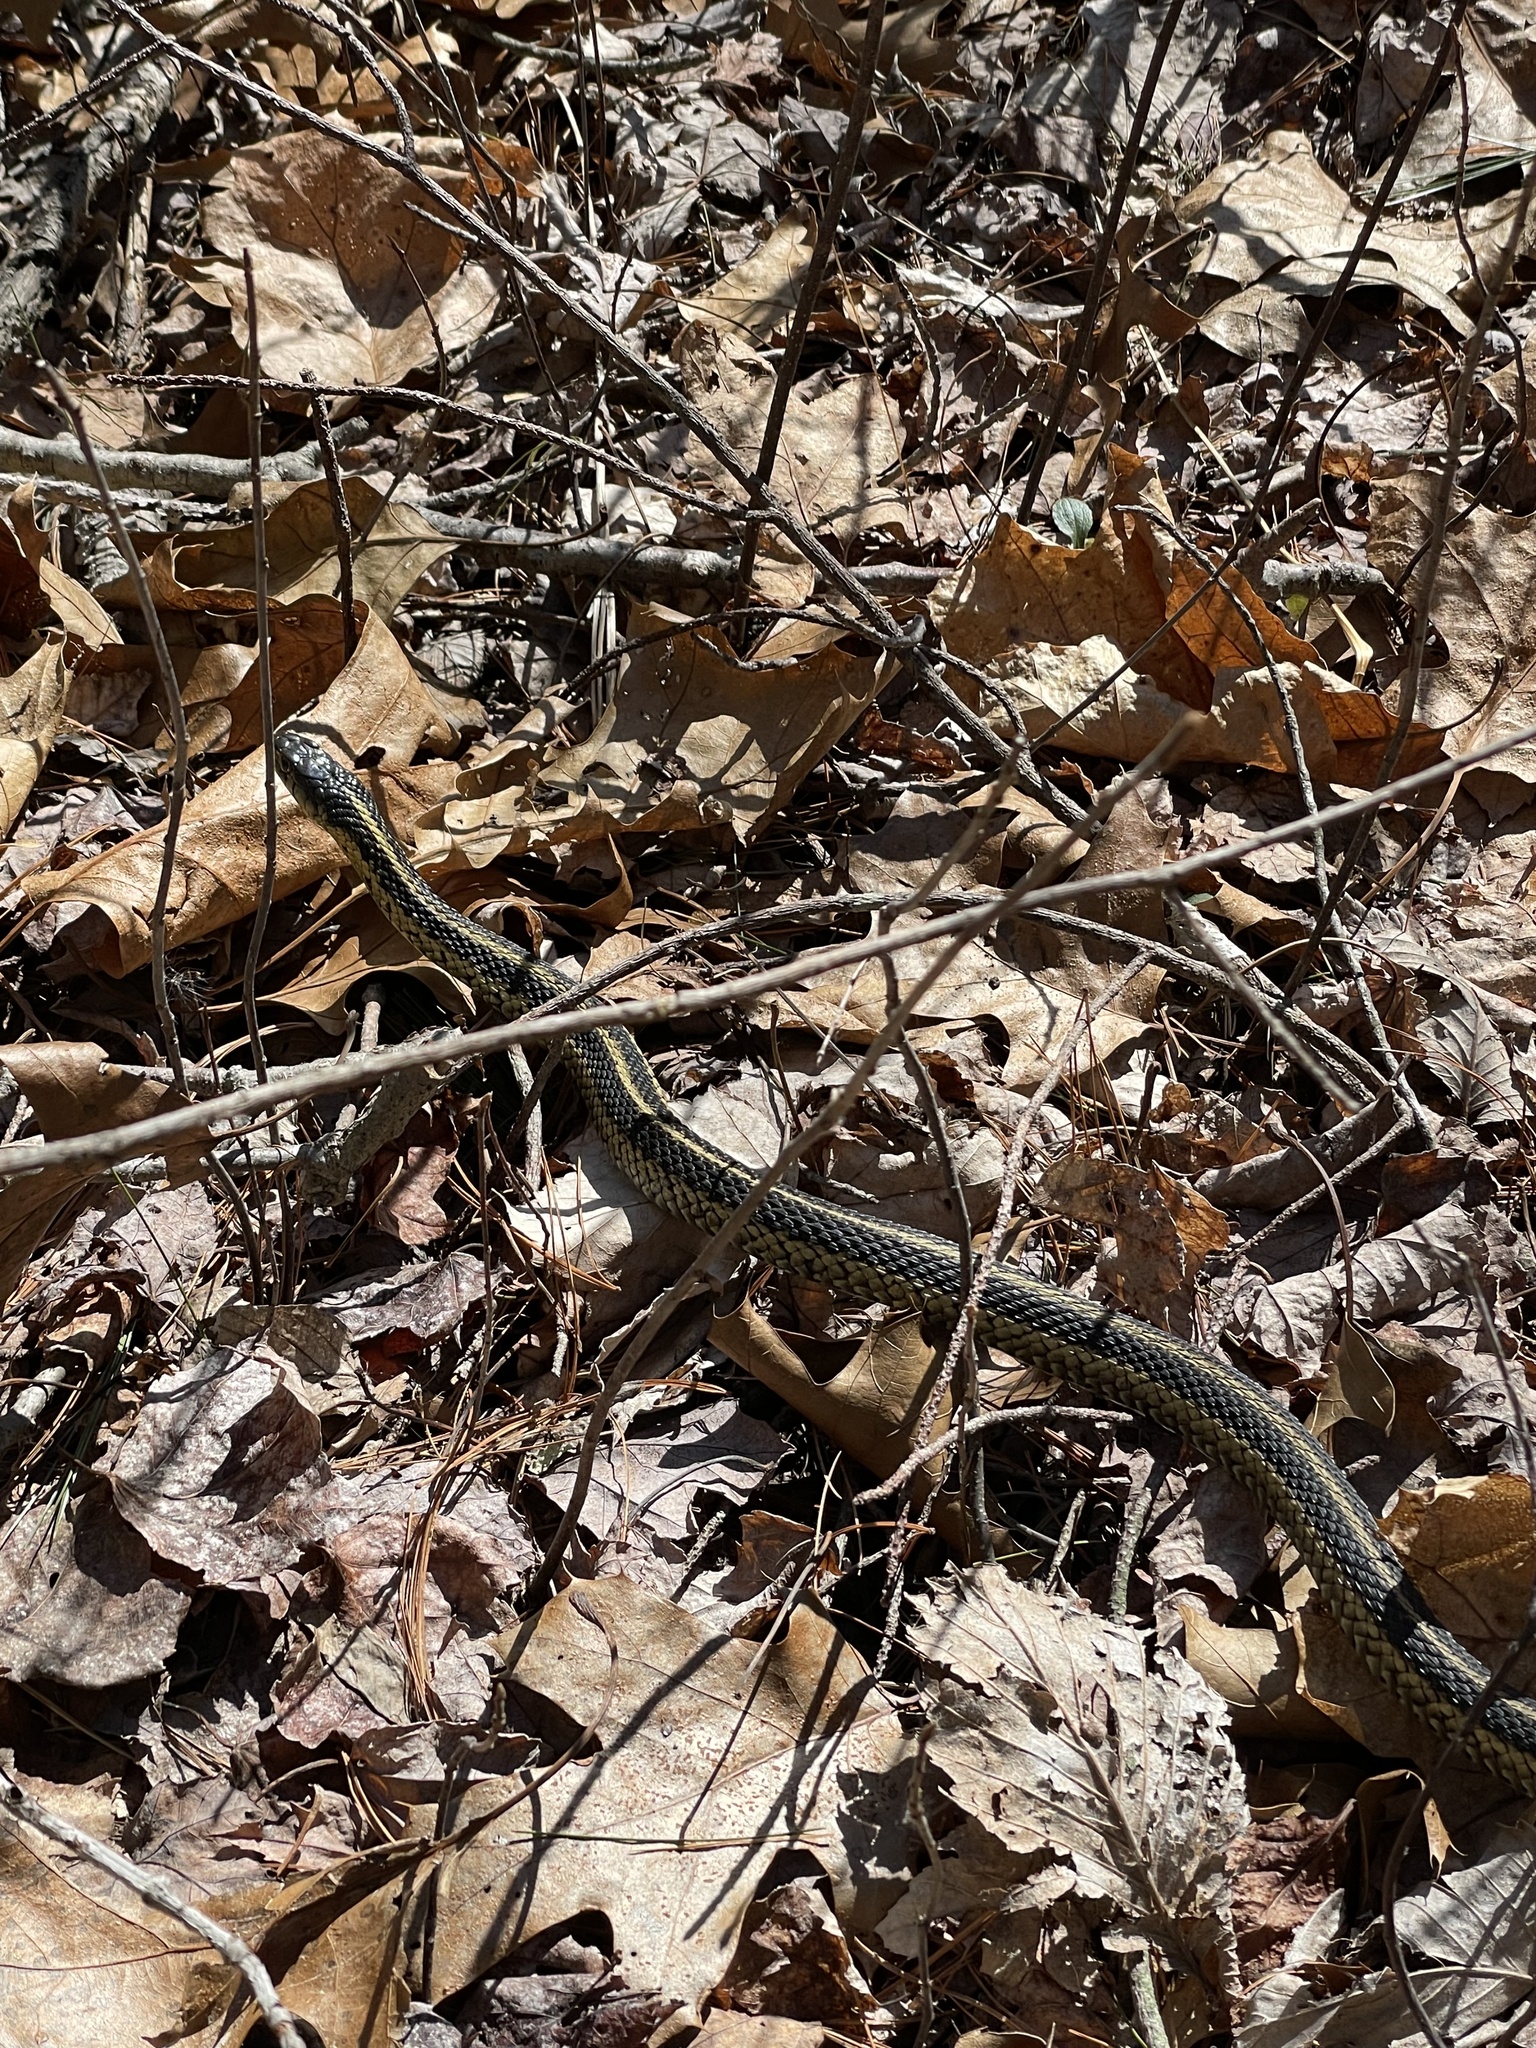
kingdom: Animalia
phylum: Chordata
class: Squamata
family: Colubridae
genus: Thamnophis
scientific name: Thamnophis sirtalis
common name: Common garter snake
